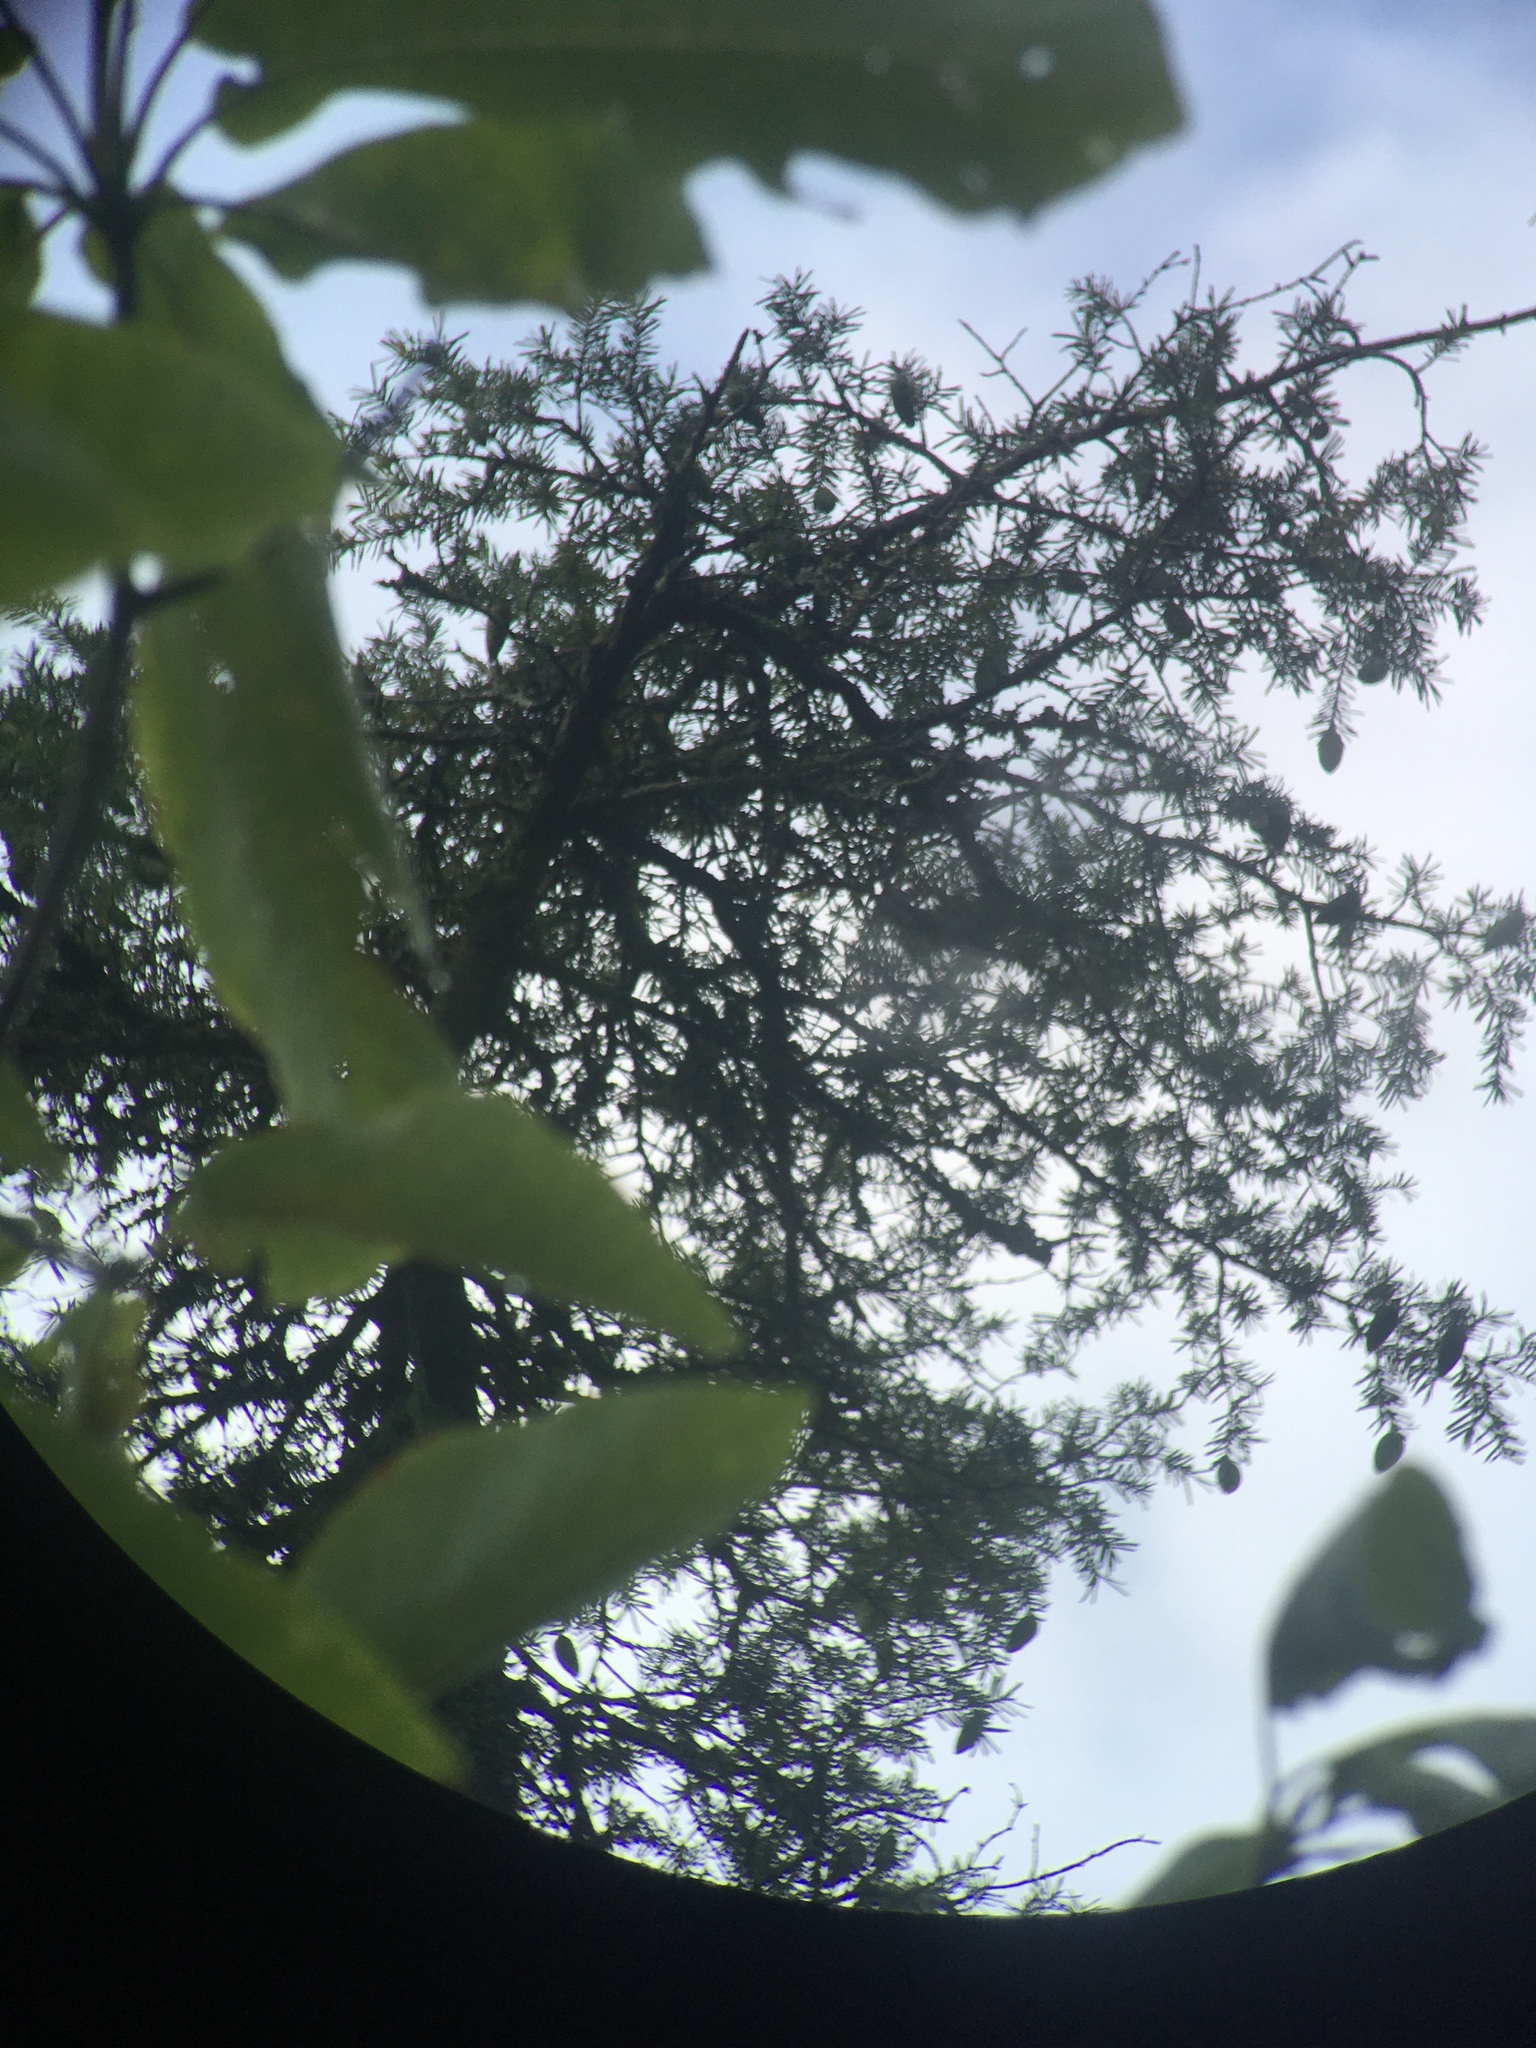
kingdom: Plantae
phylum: Tracheophyta
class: Pinopsida
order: Pinales
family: Pinaceae
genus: Tsuga
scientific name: Tsuga caroliniana
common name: Carolina hemlock
